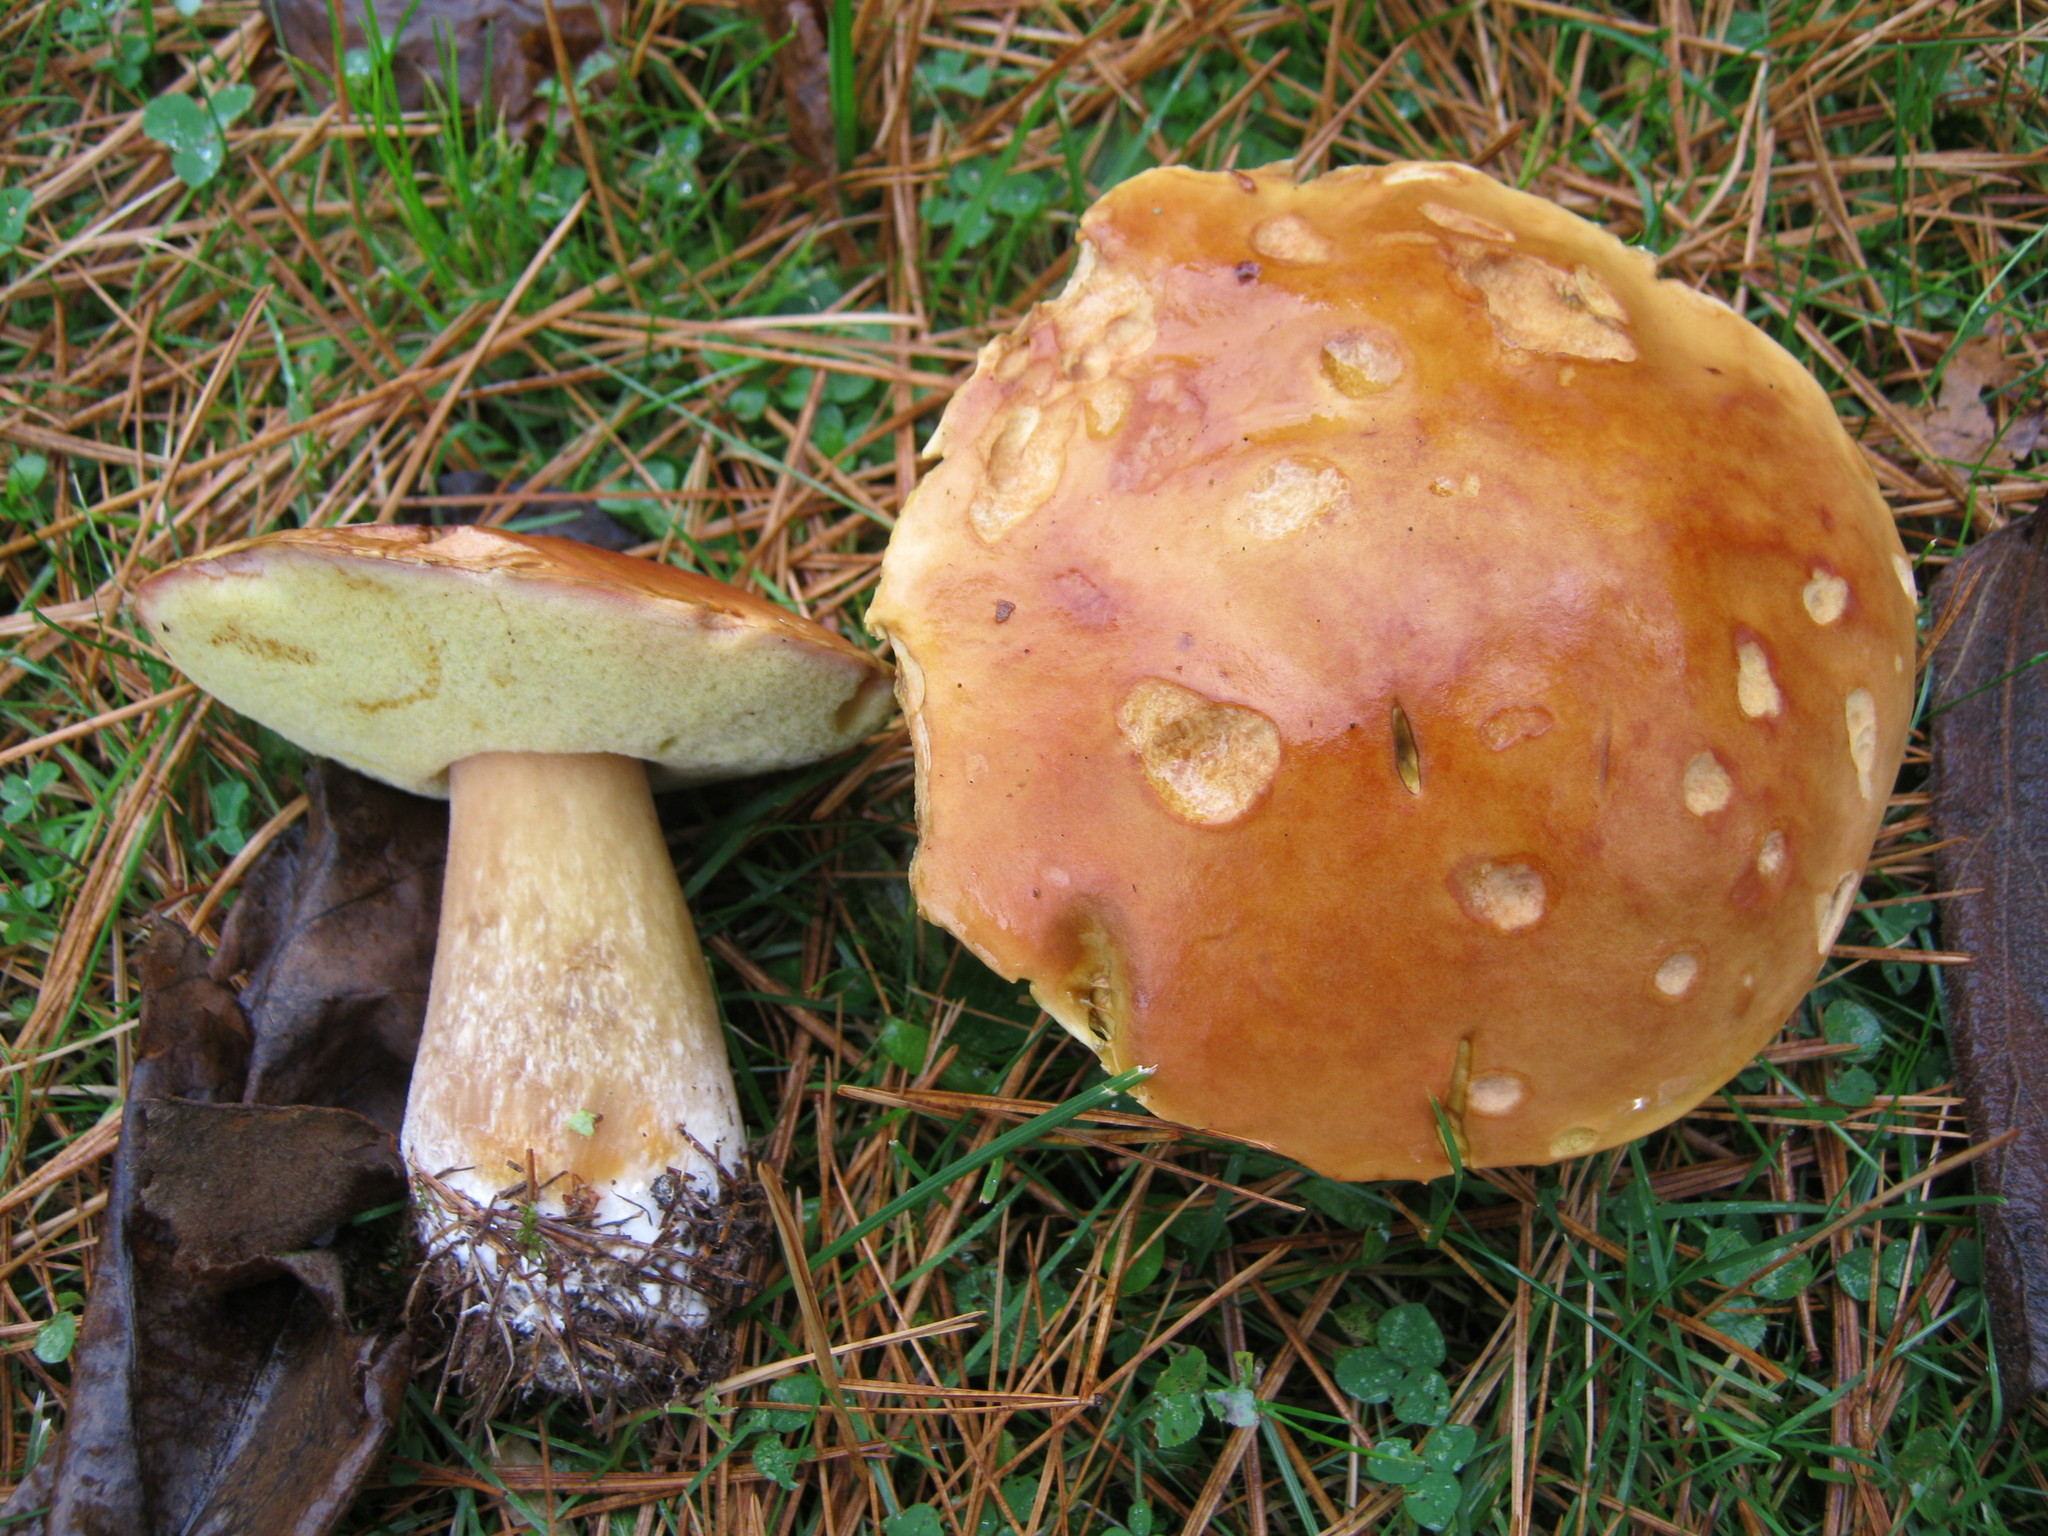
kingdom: Fungi
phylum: Basidiomycota
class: Agaricomycetes
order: Boletales
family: Boletaceae
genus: Boletus
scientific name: Boletus subcaerulescens
